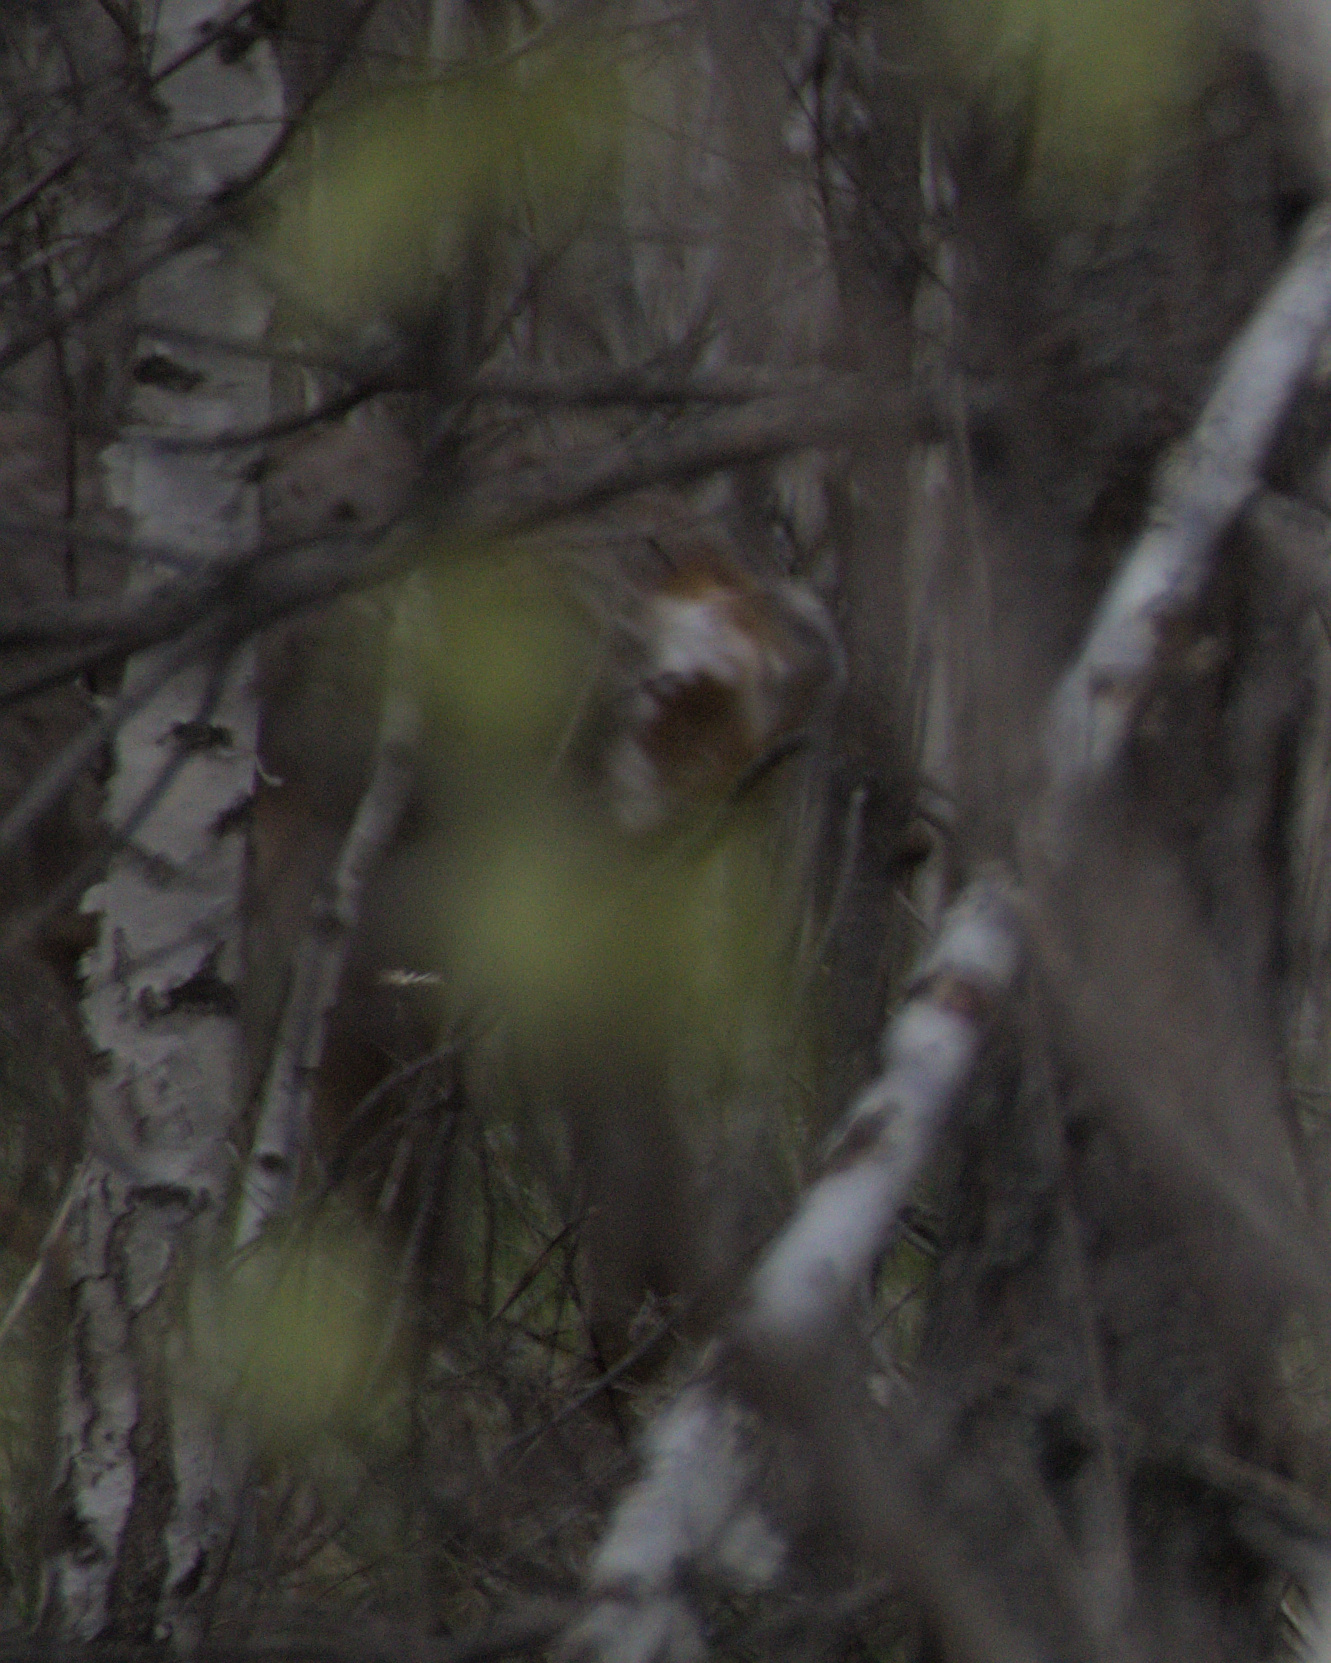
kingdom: Animalia
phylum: Chordata
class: Mammalia
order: Artiodactyla
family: Cervidae
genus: Capreolus
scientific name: Capreolus pygargus
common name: Siberian roe
